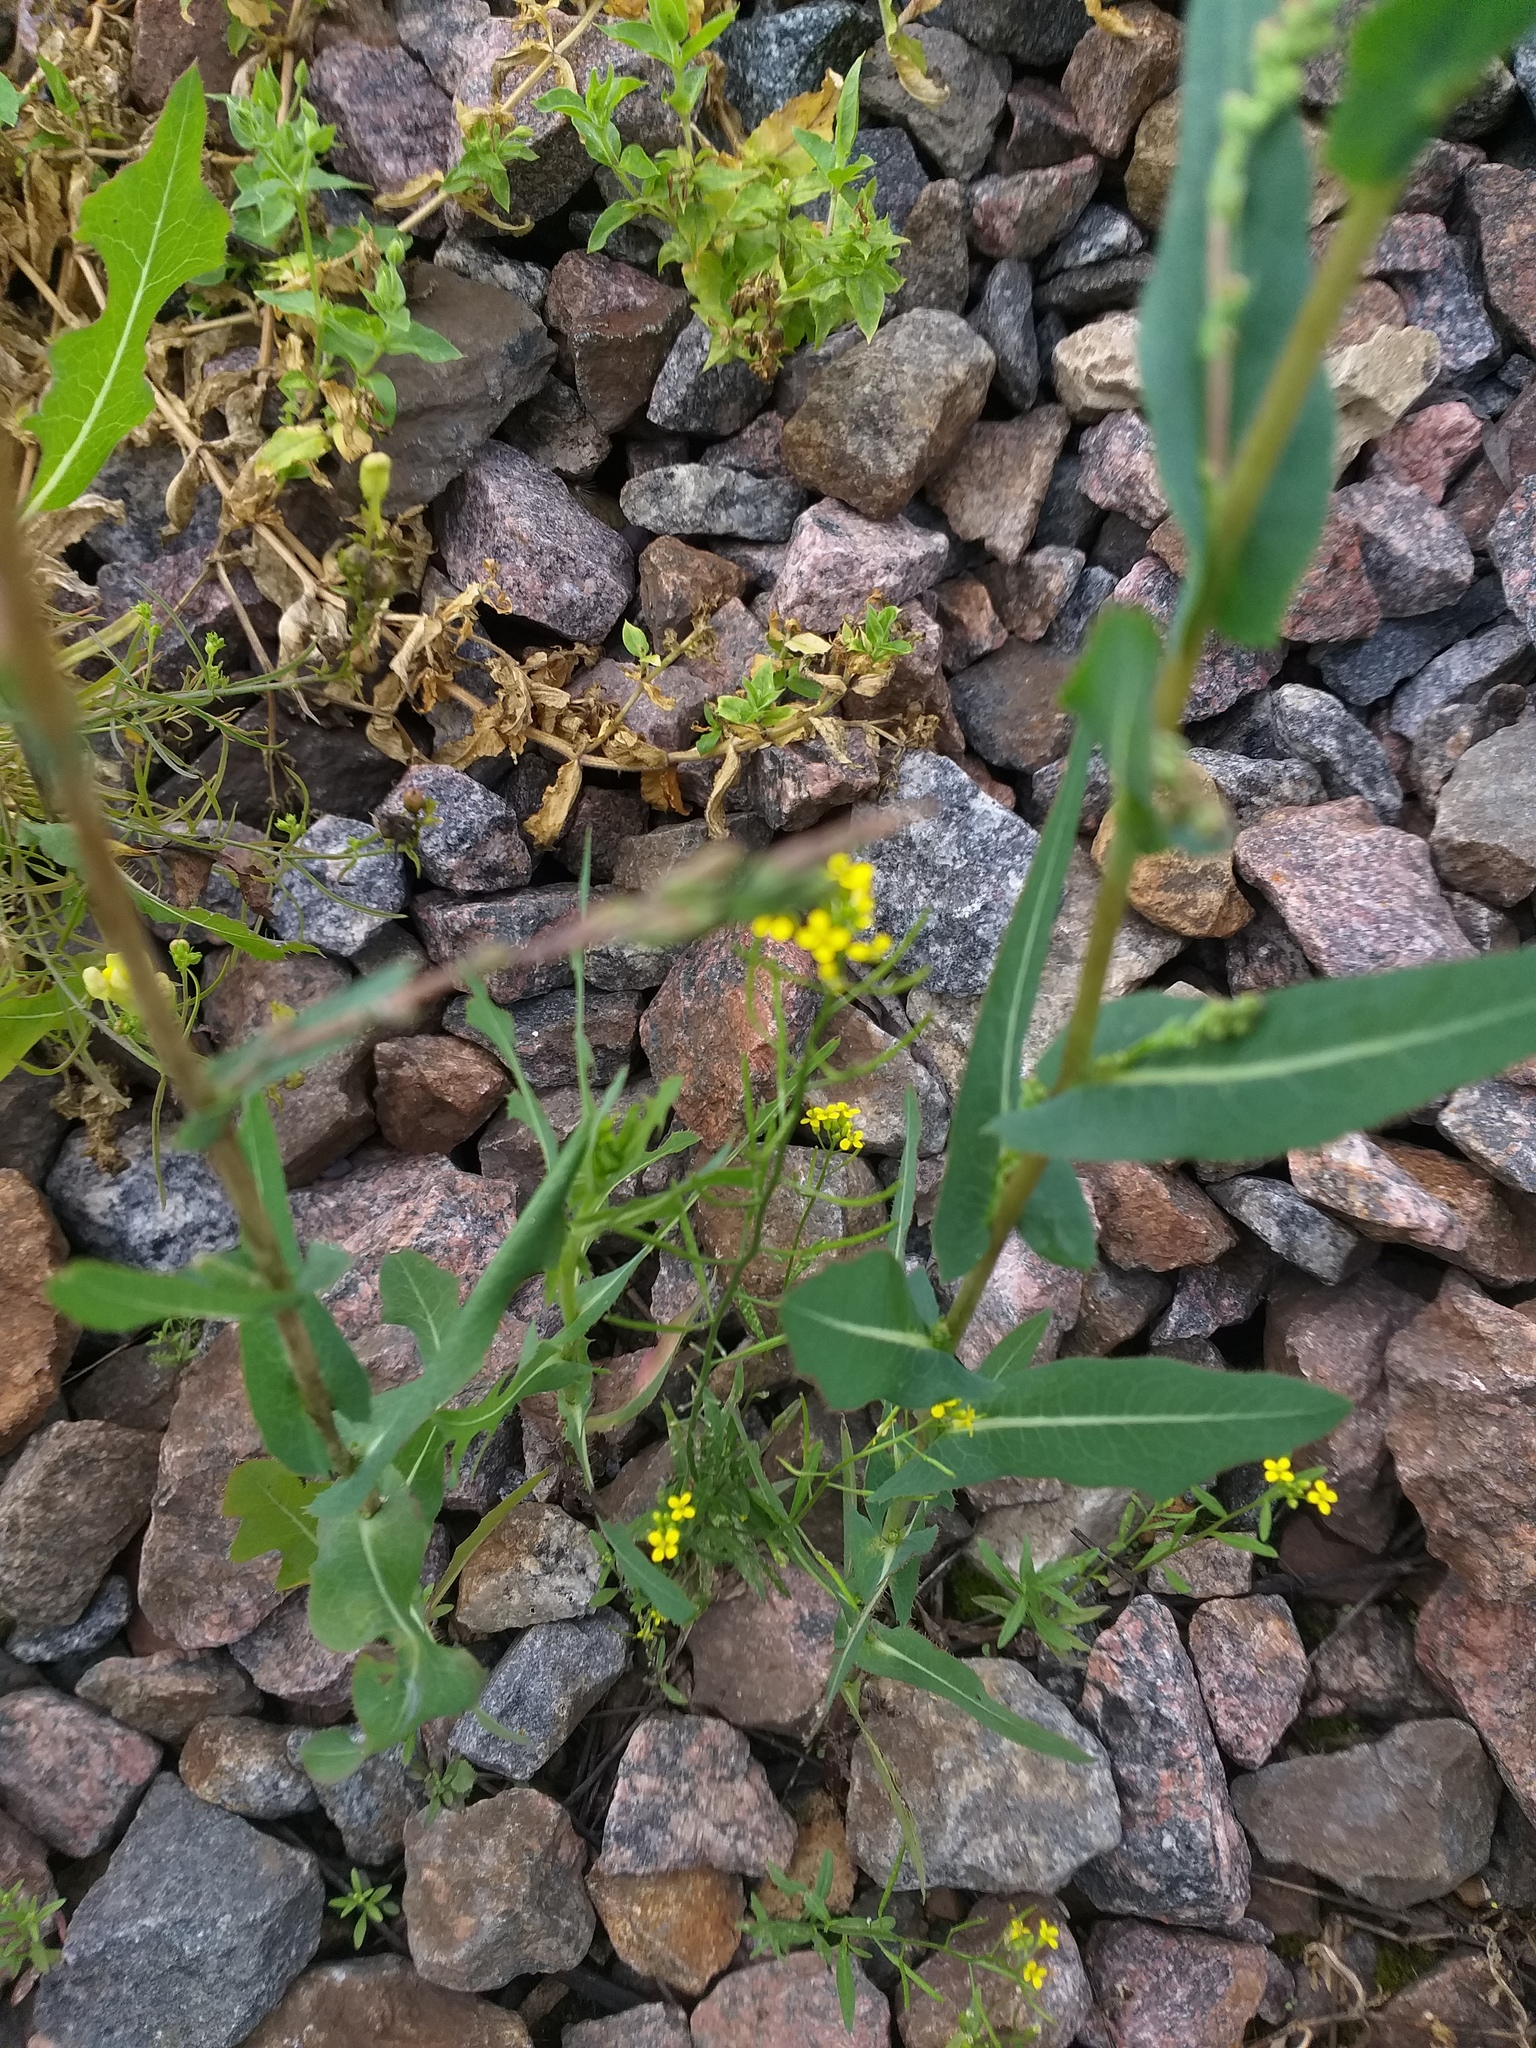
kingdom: Plantae
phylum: Tracheophyta
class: Magnoliopsida
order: Brassicales
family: Brassicaceae
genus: Erysimum
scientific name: Erysimum cheiranthoides
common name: Treacle mustard
